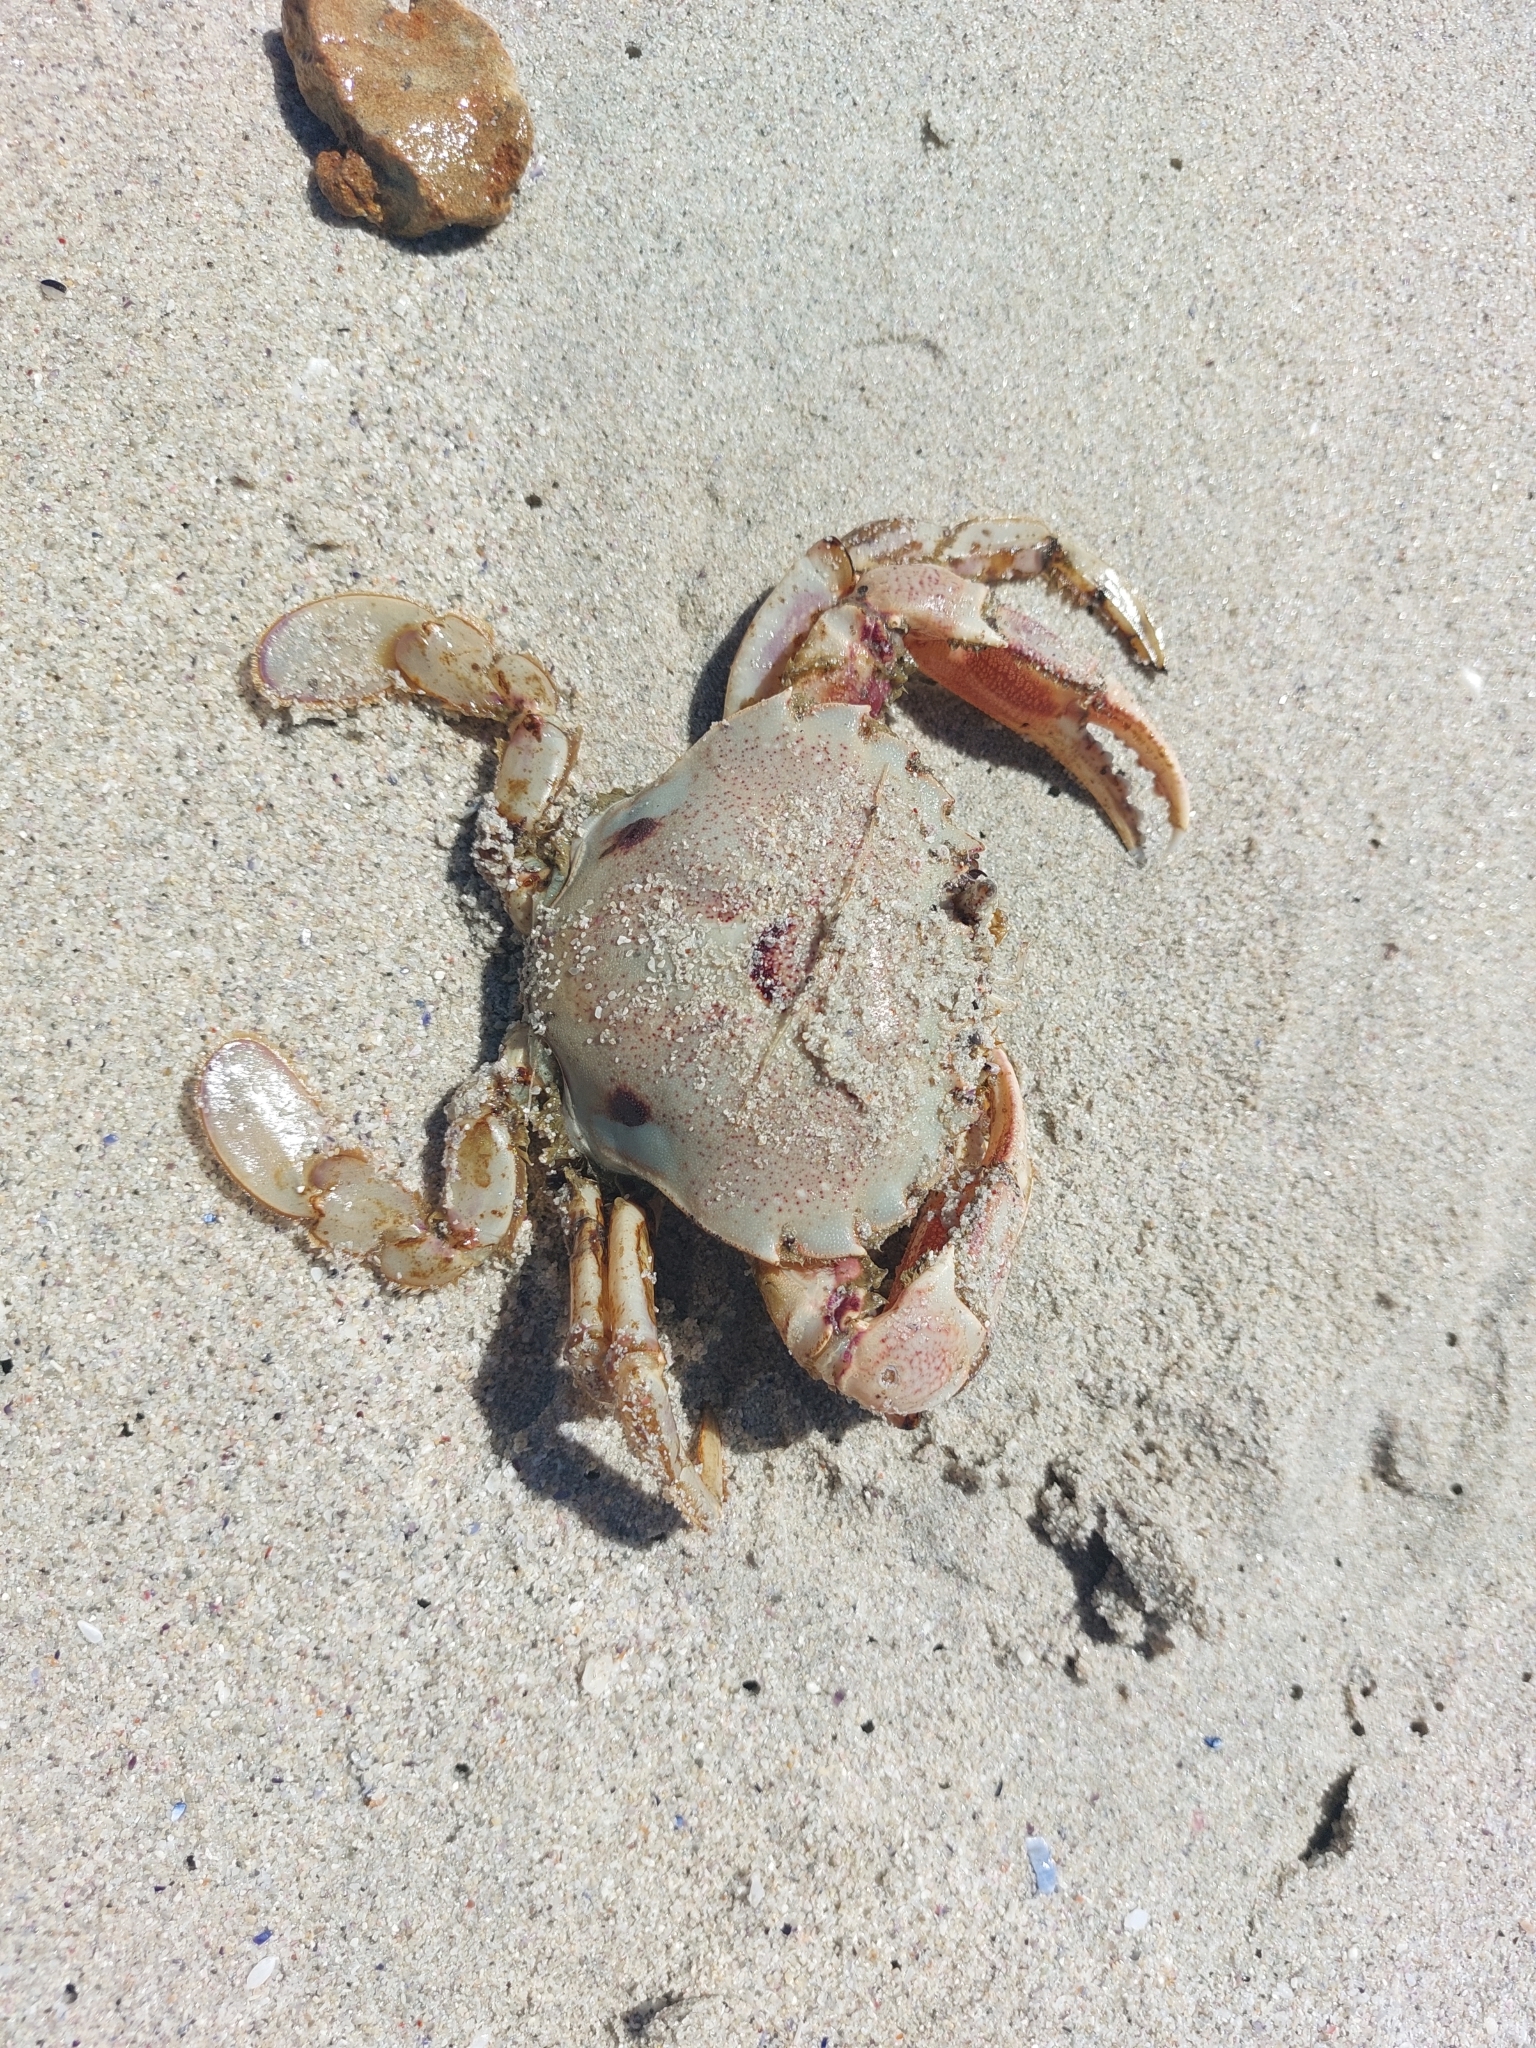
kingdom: Animalia
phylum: Arthropoda
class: Malacostraca
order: Decapoda
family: Ovalipidae
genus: Ovalipes
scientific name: Ovalipes trimaculatus
